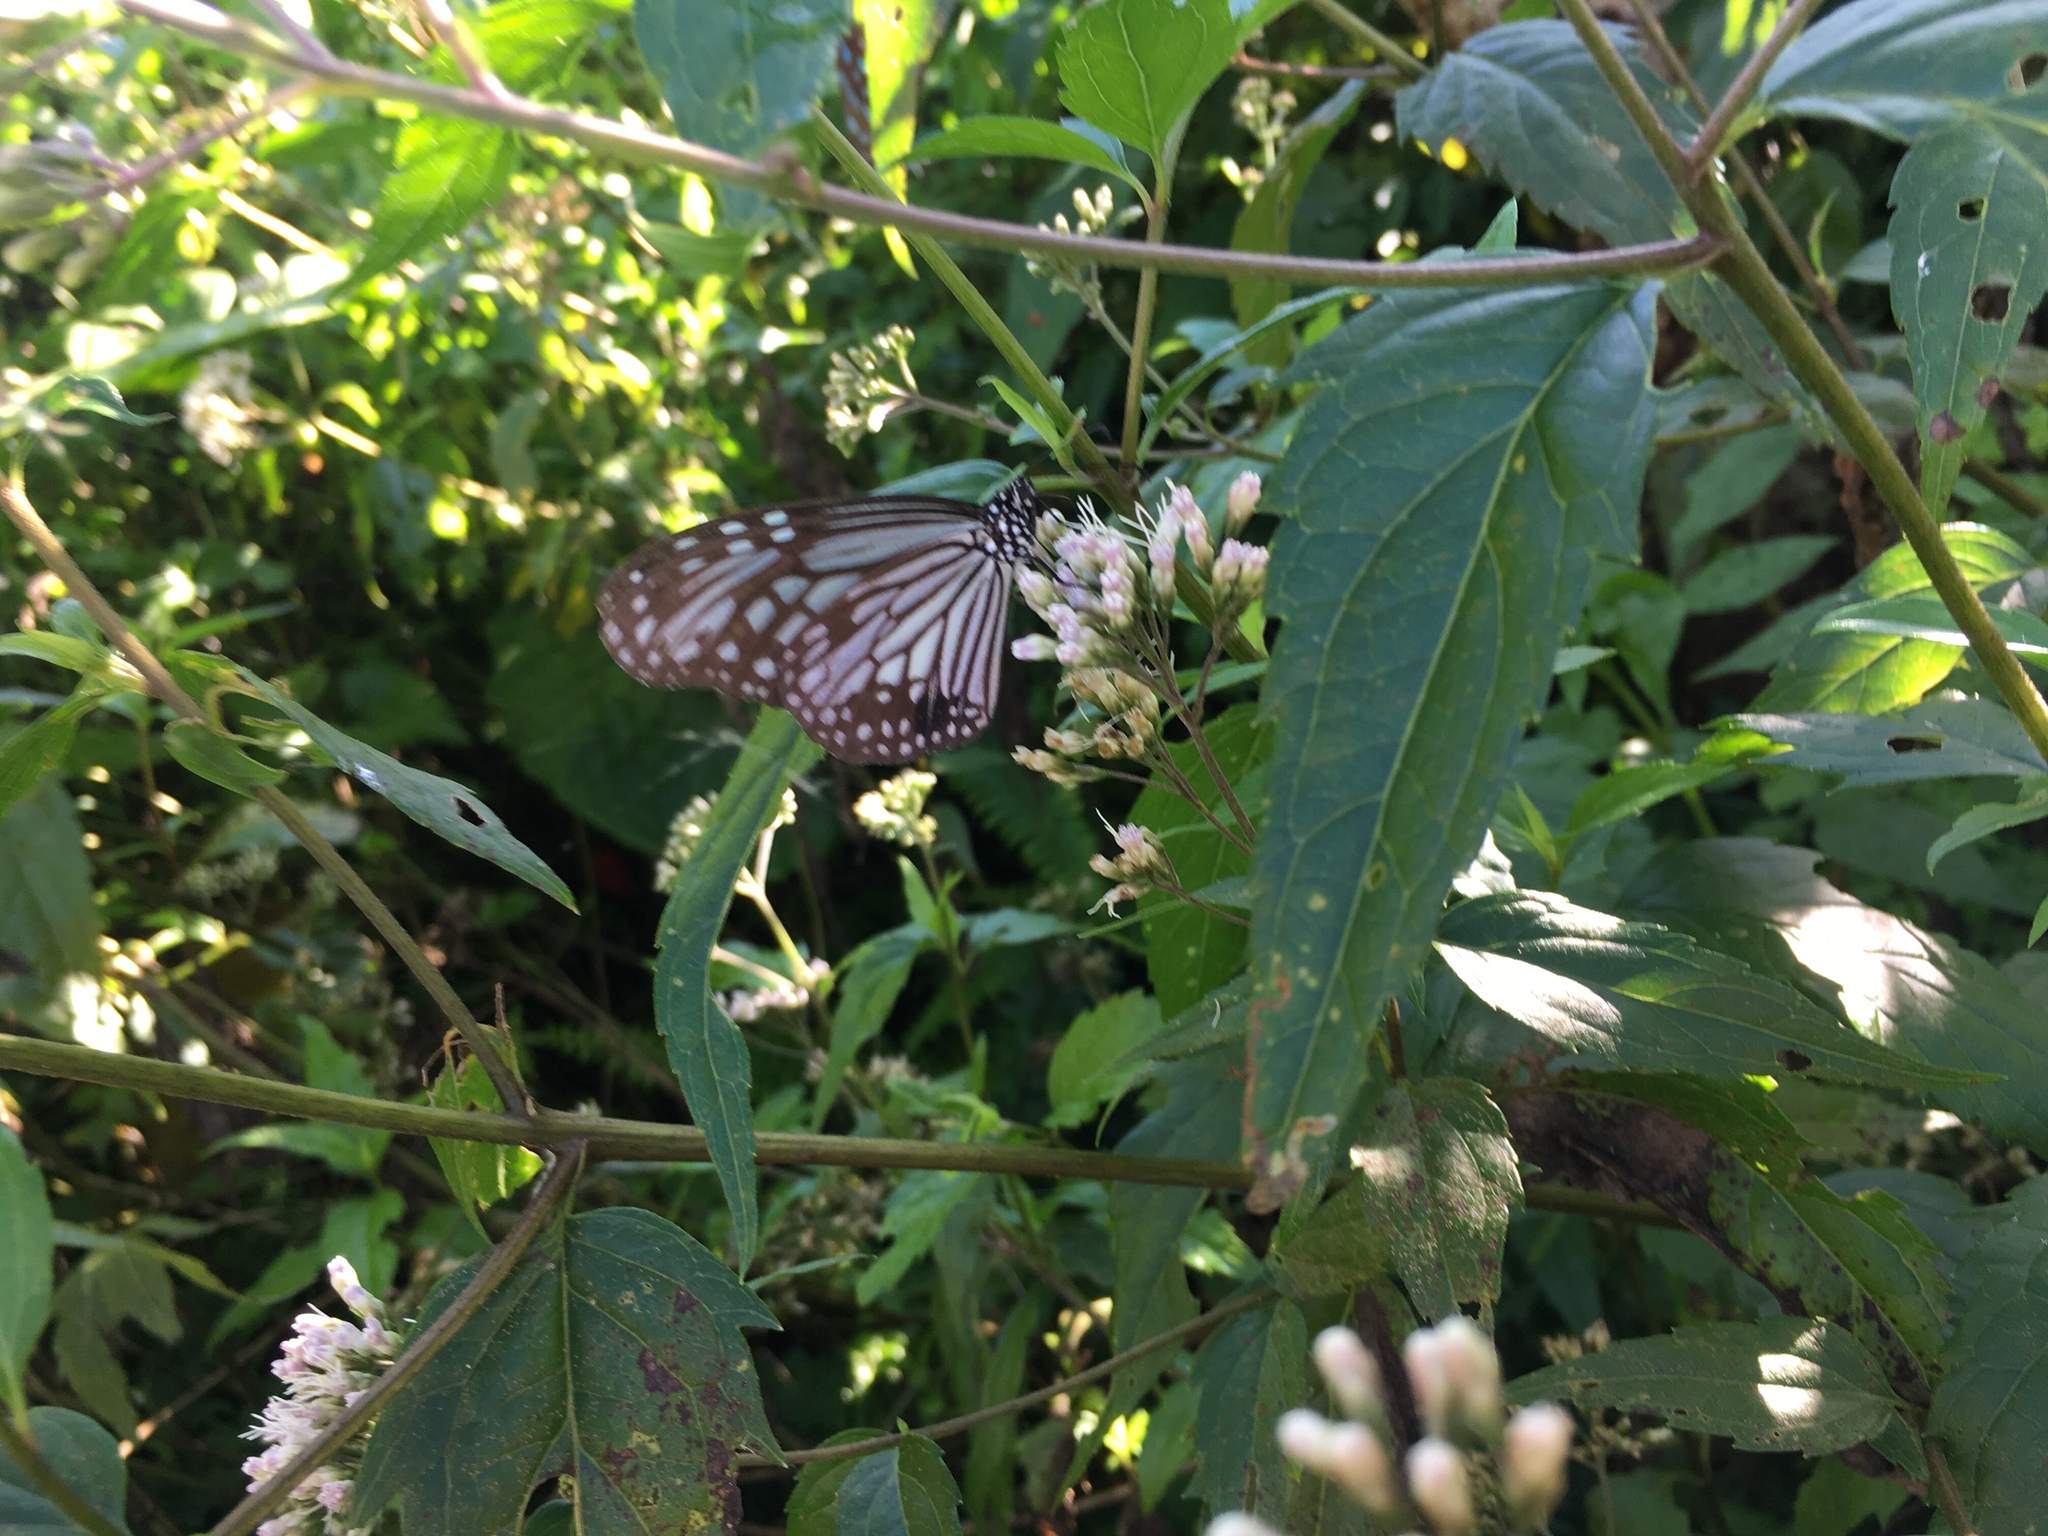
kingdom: Animalia
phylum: Arthropoda
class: Insecta
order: Lepidoptera
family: Nymphalidae
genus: Parantica
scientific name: Parantica aglea
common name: Glassy tiger
